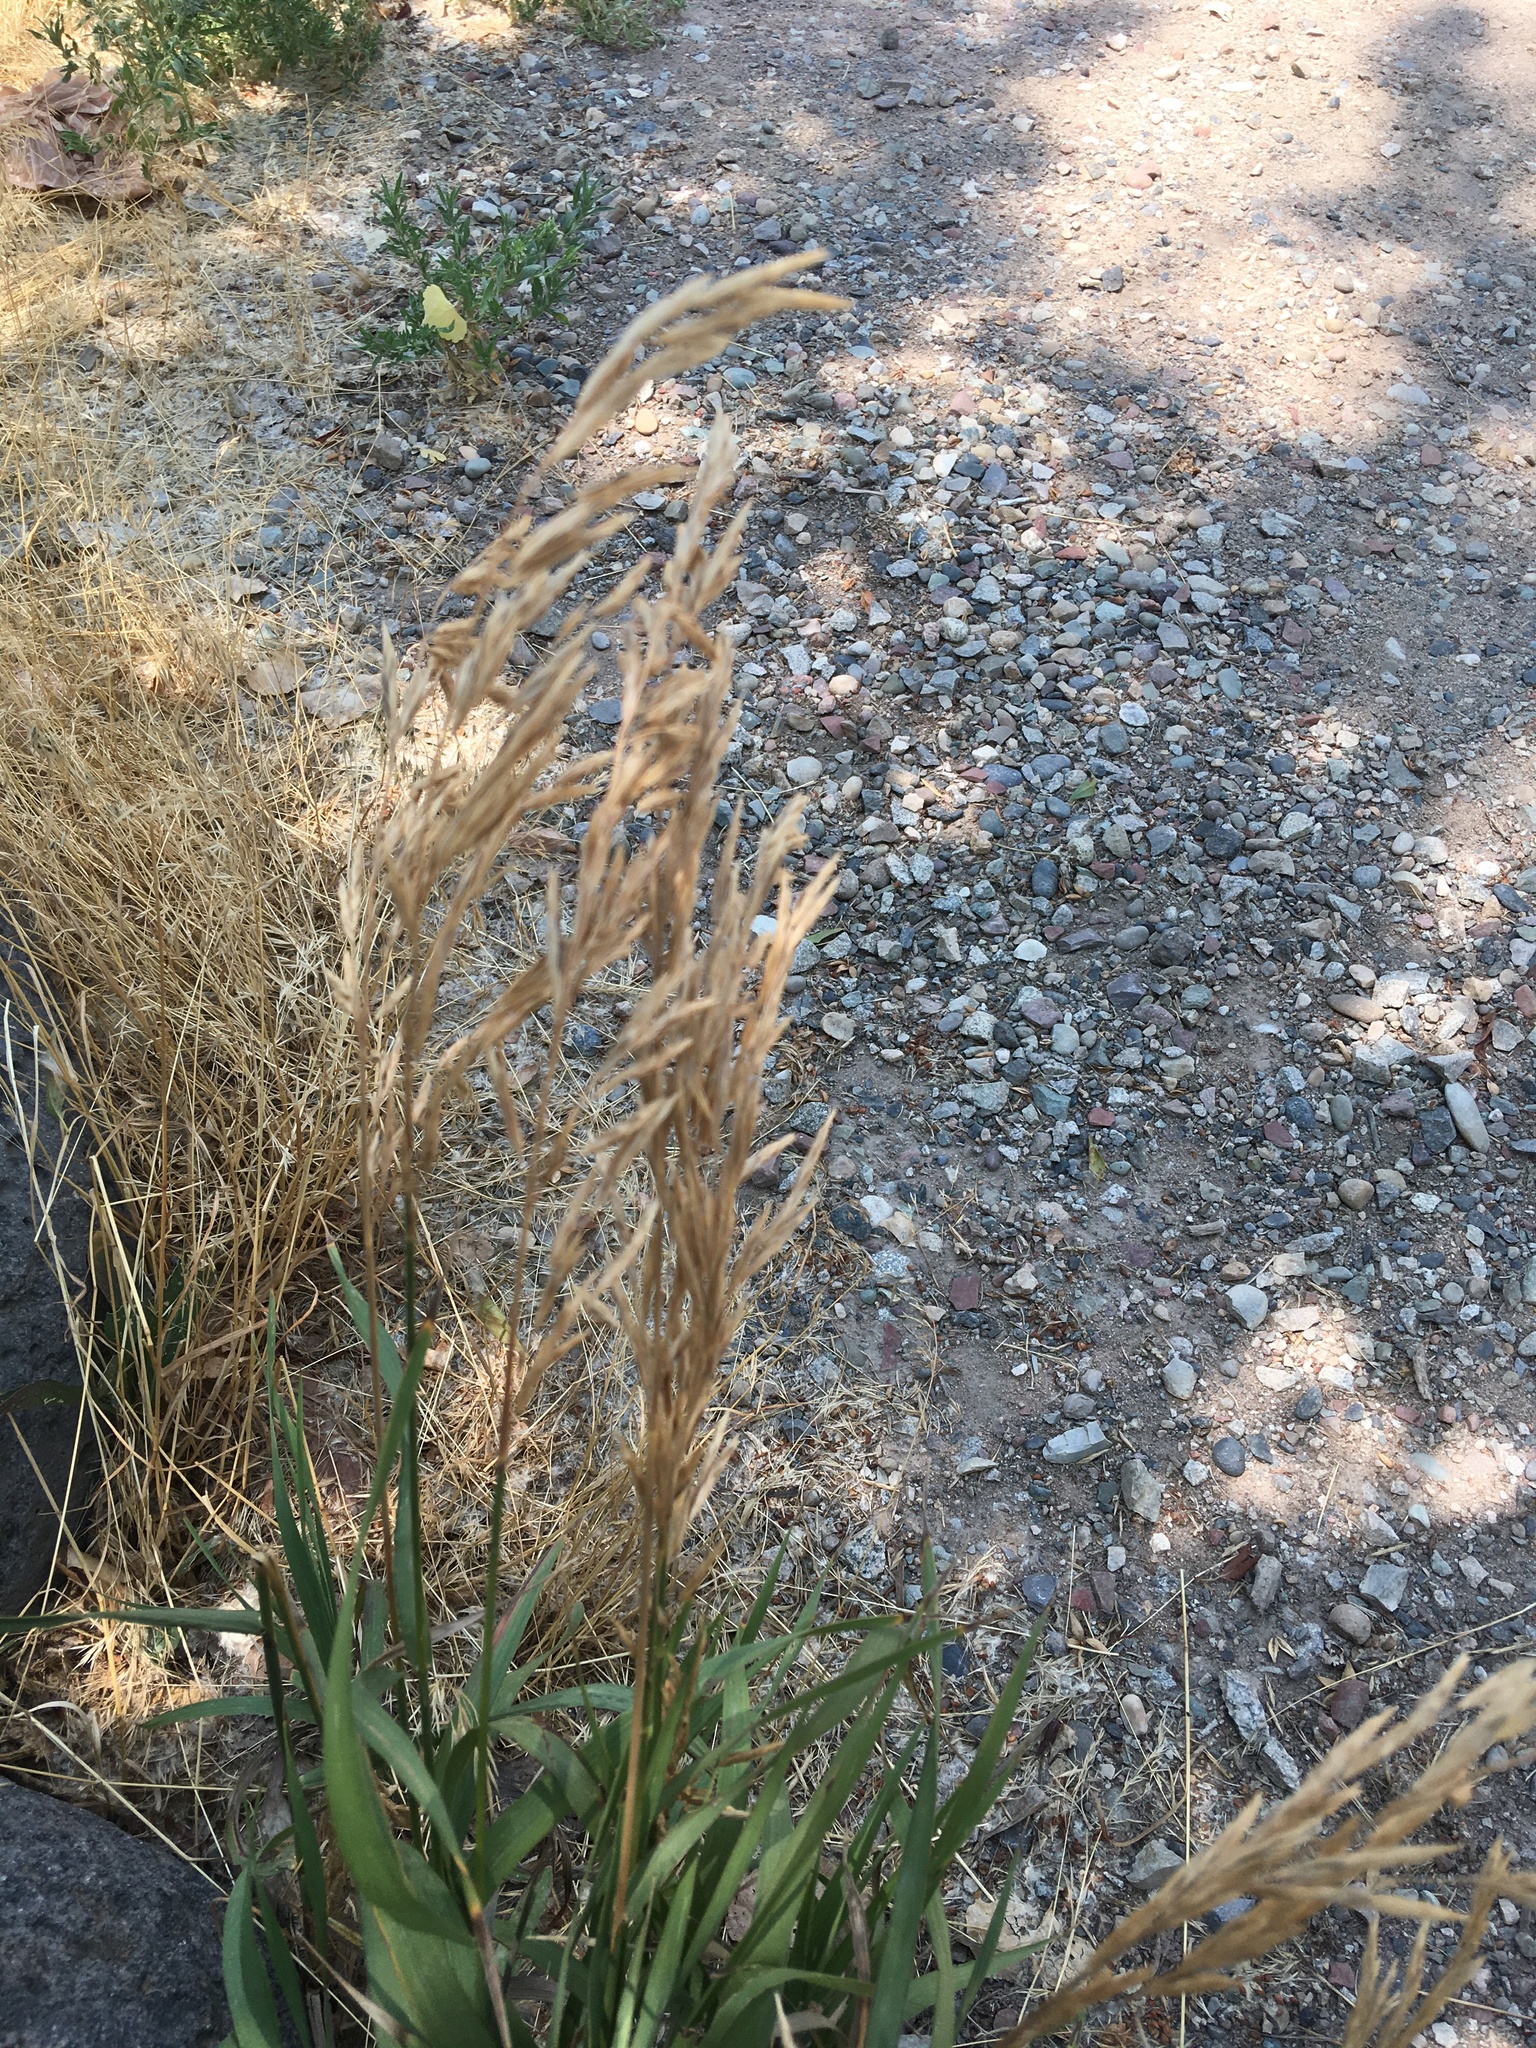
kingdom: Plantae
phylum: Tracheophyta
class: Liliopsida
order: Poales
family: Poaceae
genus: Bromus
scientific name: Bromus inermis
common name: Smooth brome
